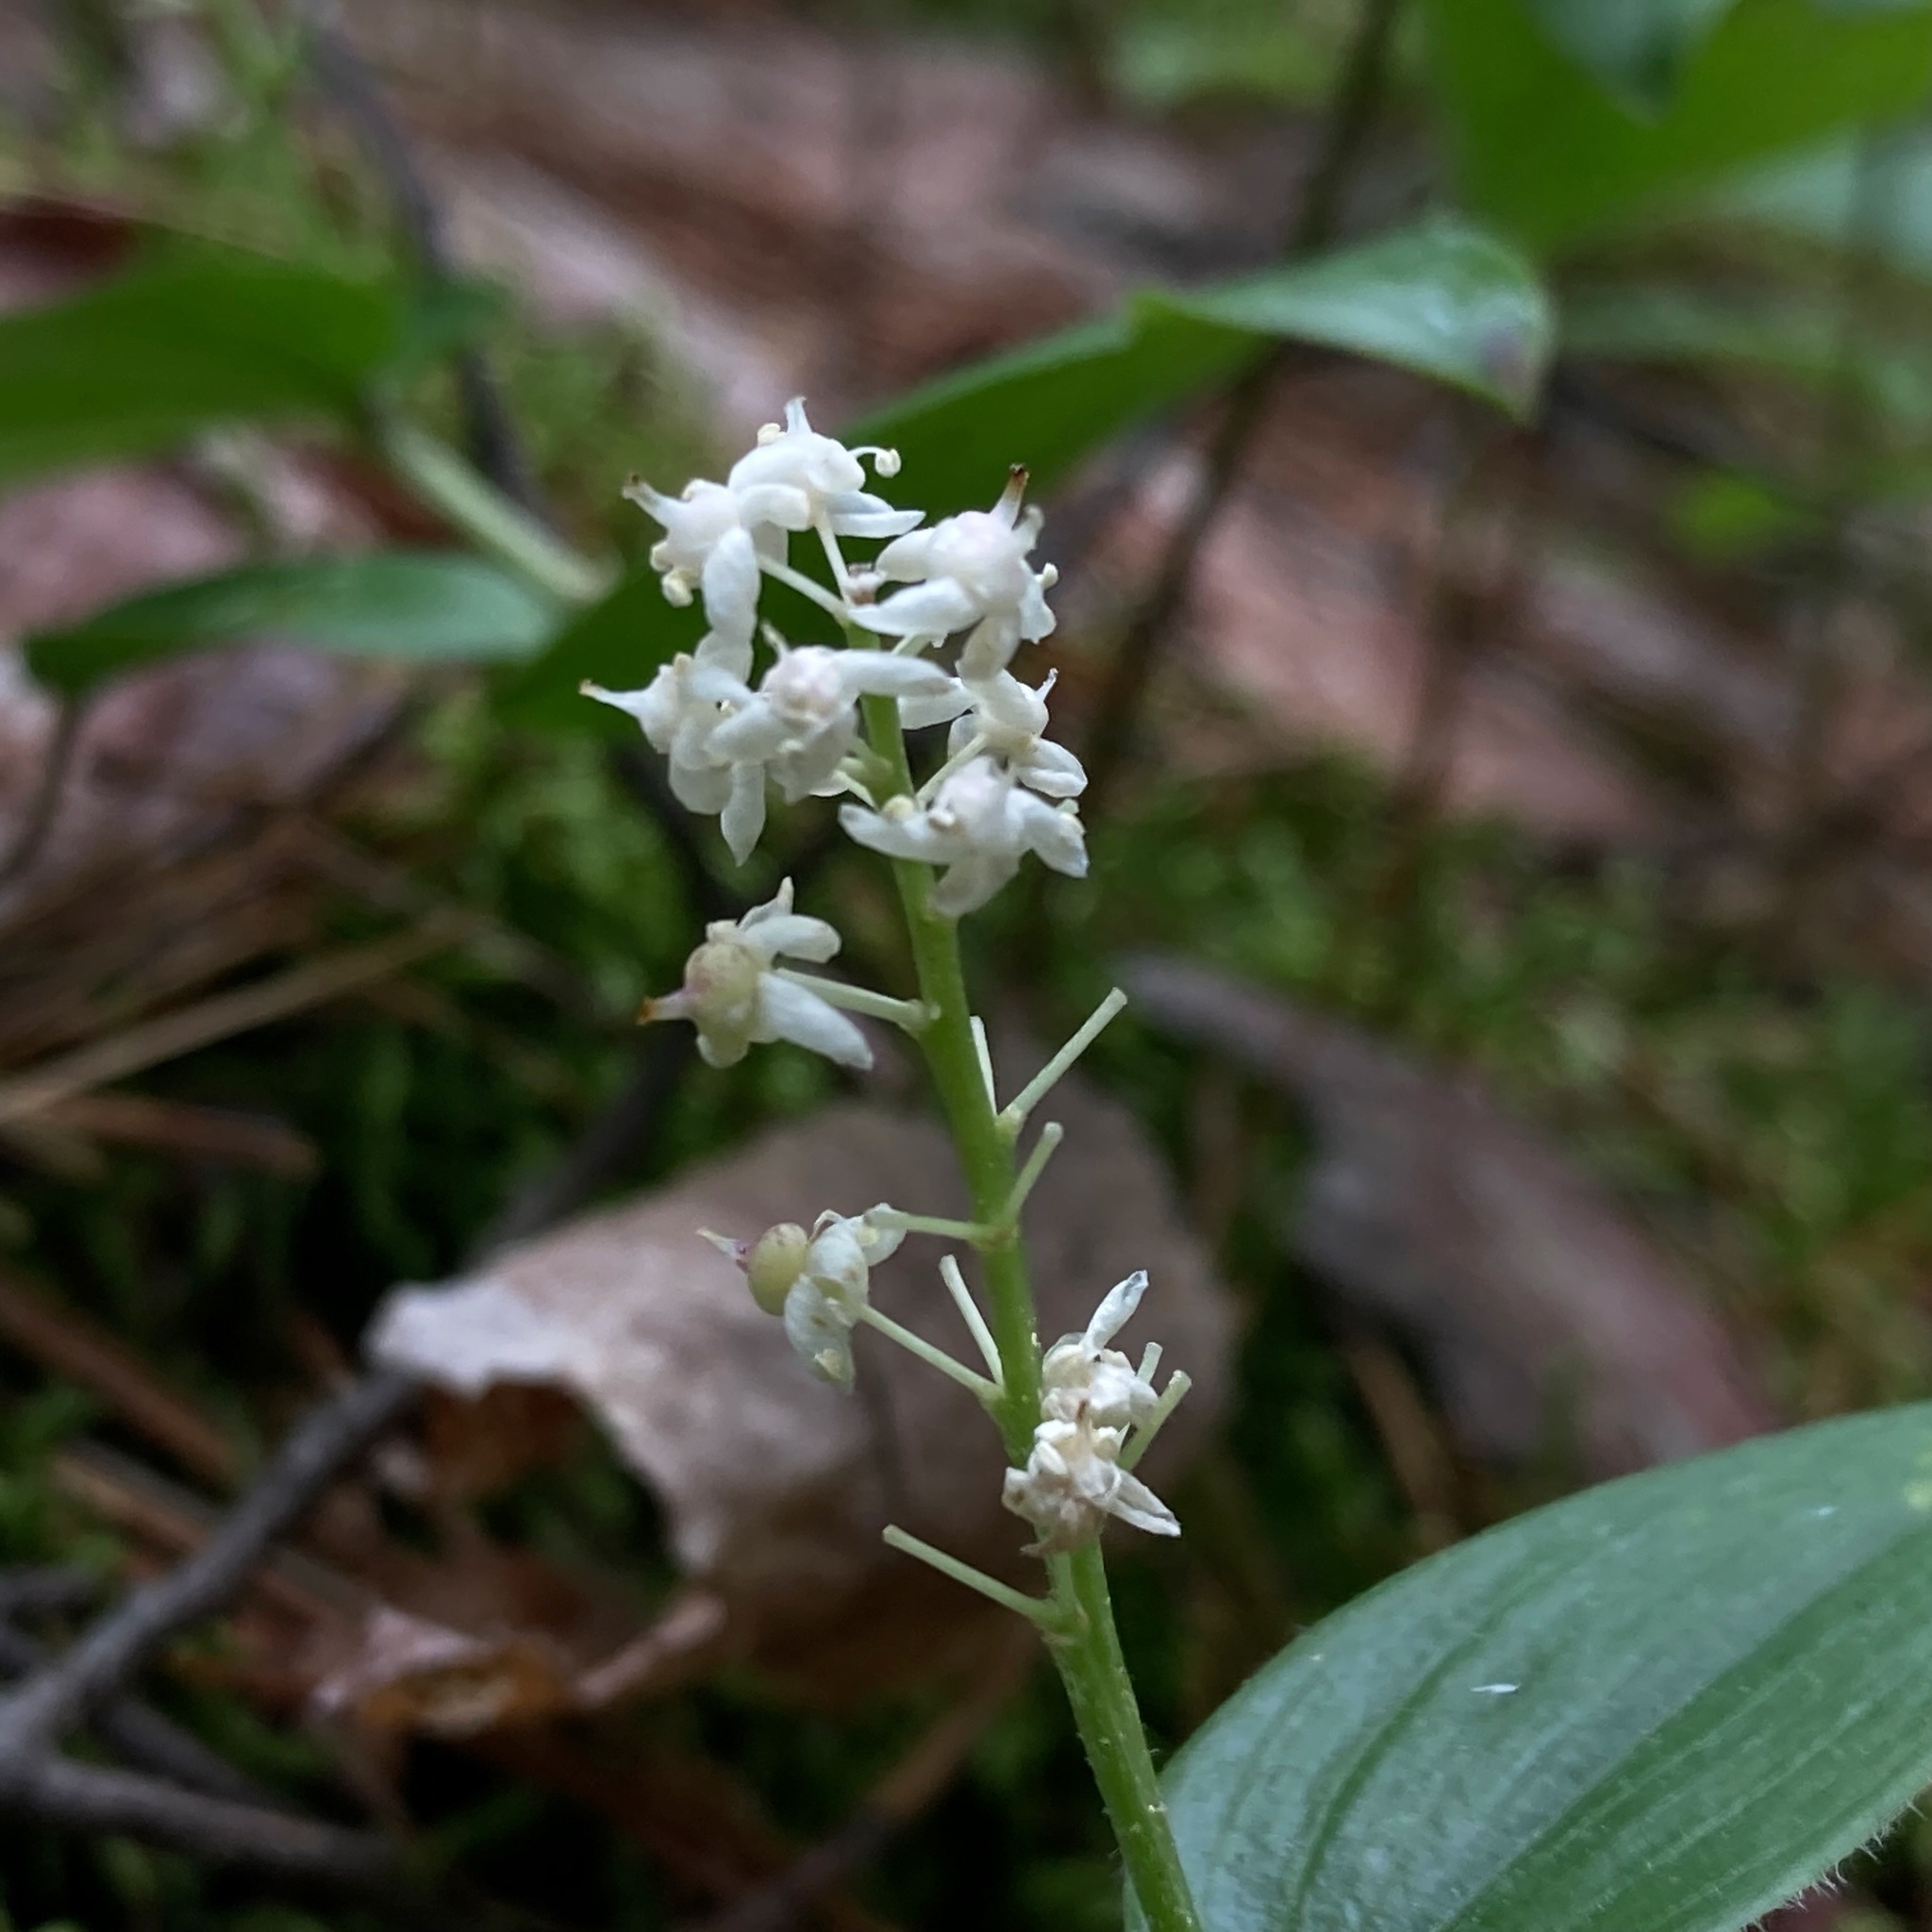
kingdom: Plantae
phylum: Tracheophyta
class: Liliopsida
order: Asparagales
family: Asparagaceae
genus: Maianthemum
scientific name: Maianthemum canadense
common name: False lily-of-the-valley
